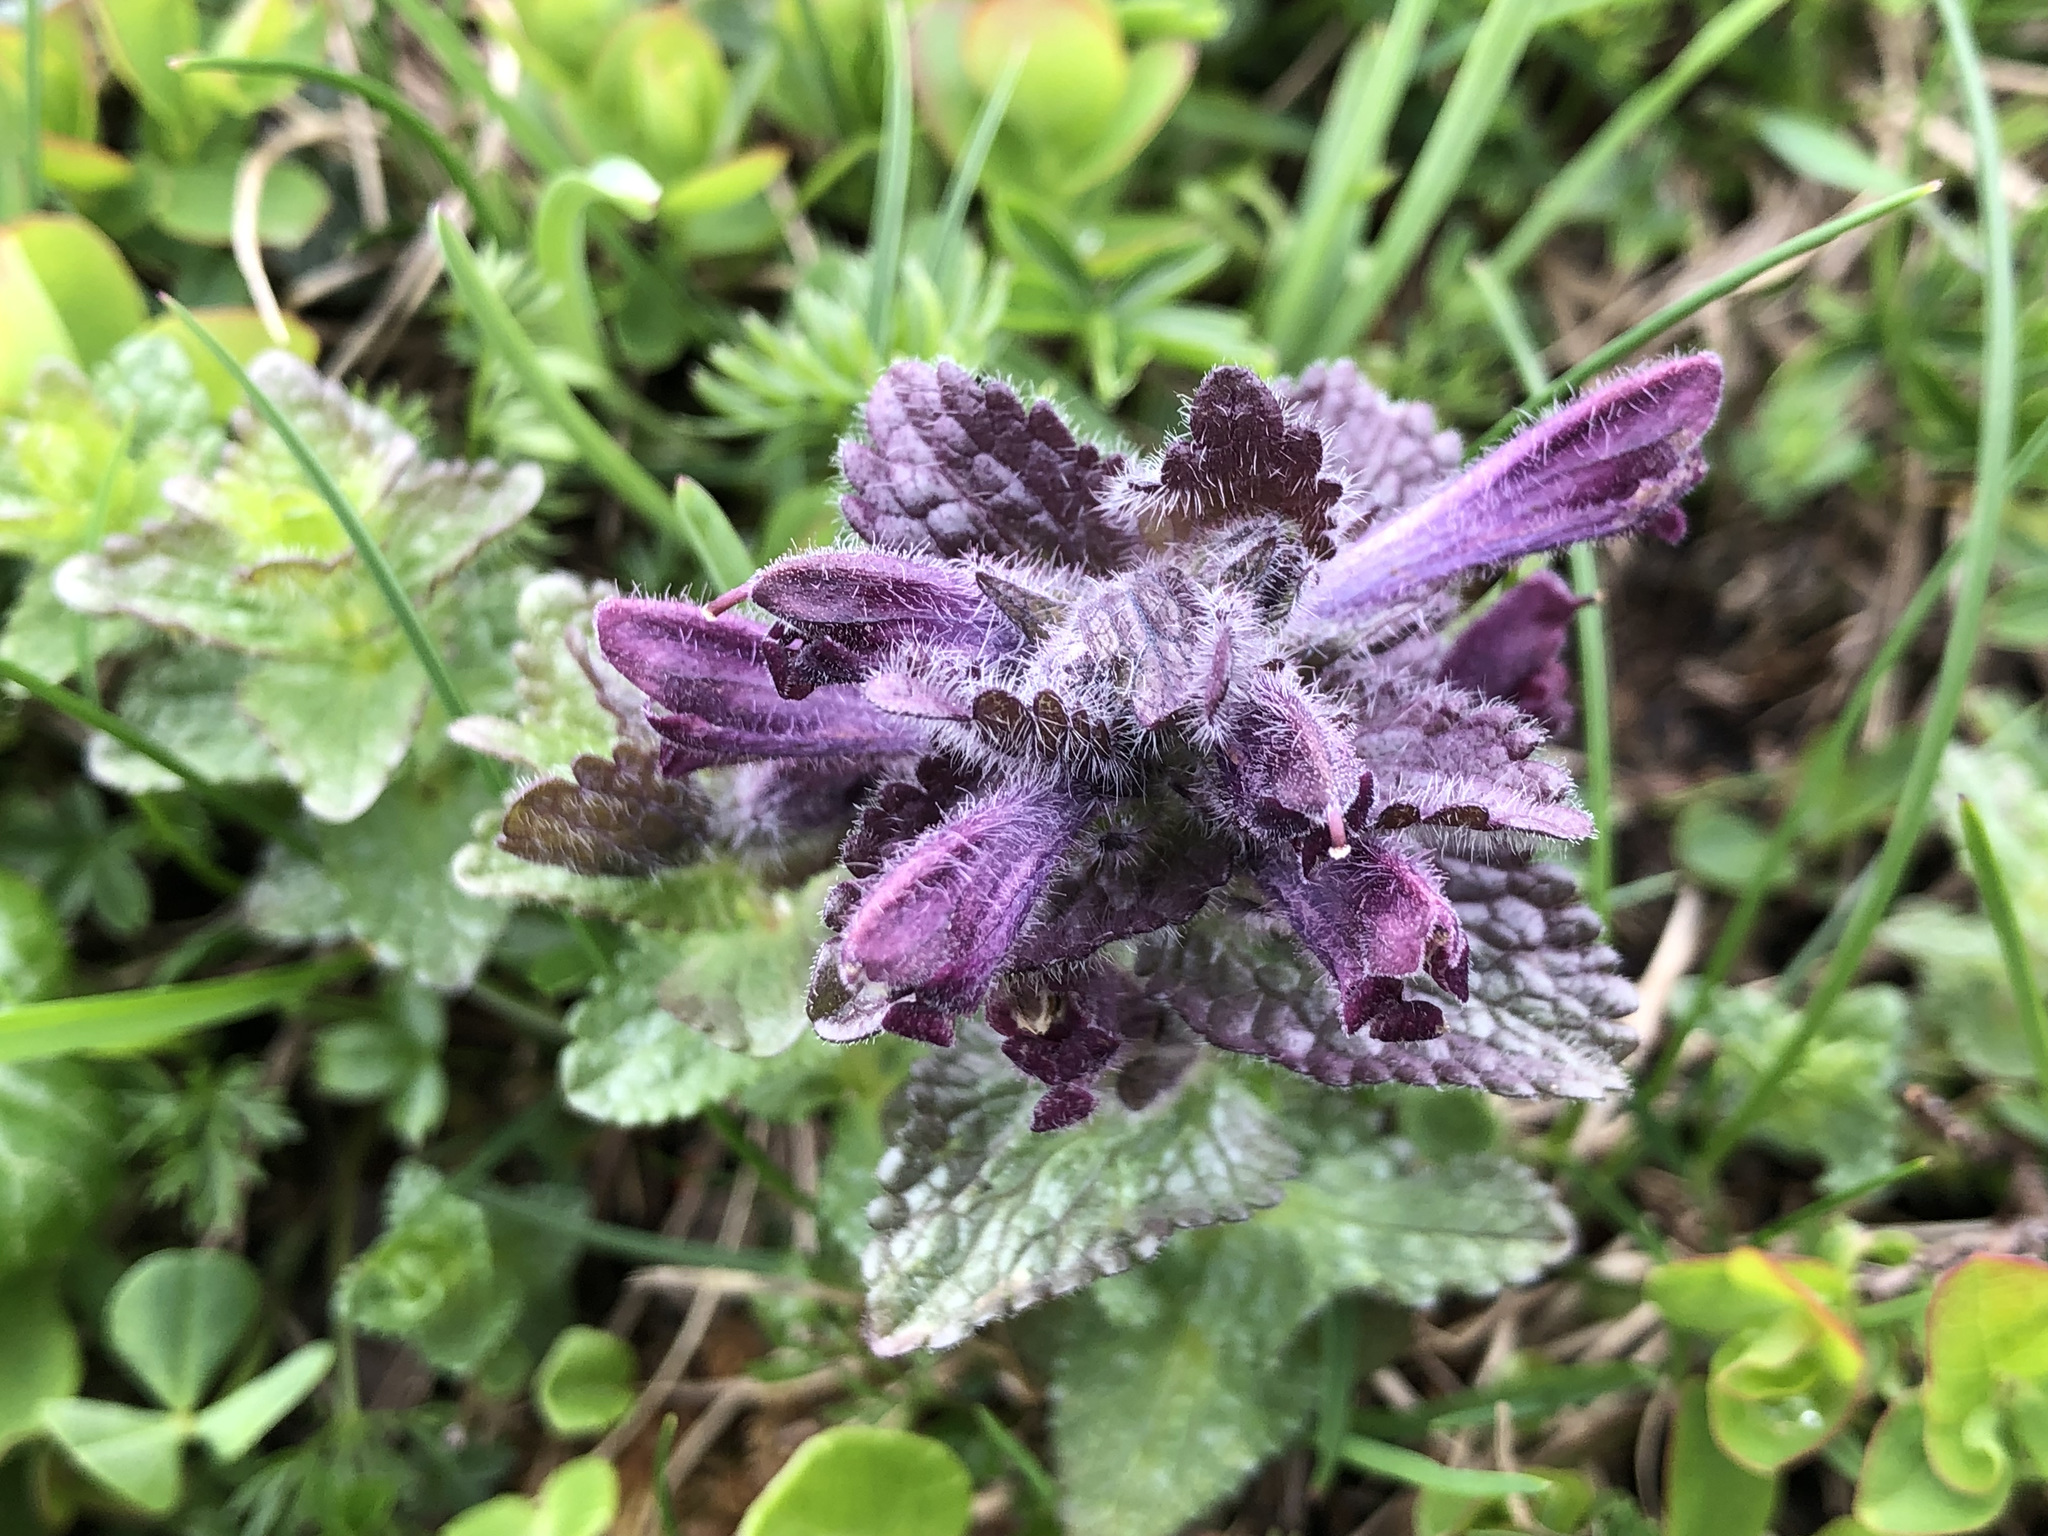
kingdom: Plantae
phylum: Tracheophyta
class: Magnoliopsida
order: Lamiales
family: Orobanchaceae
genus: Bartsia
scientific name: Bartsia alpina
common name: Alpine bartsia
